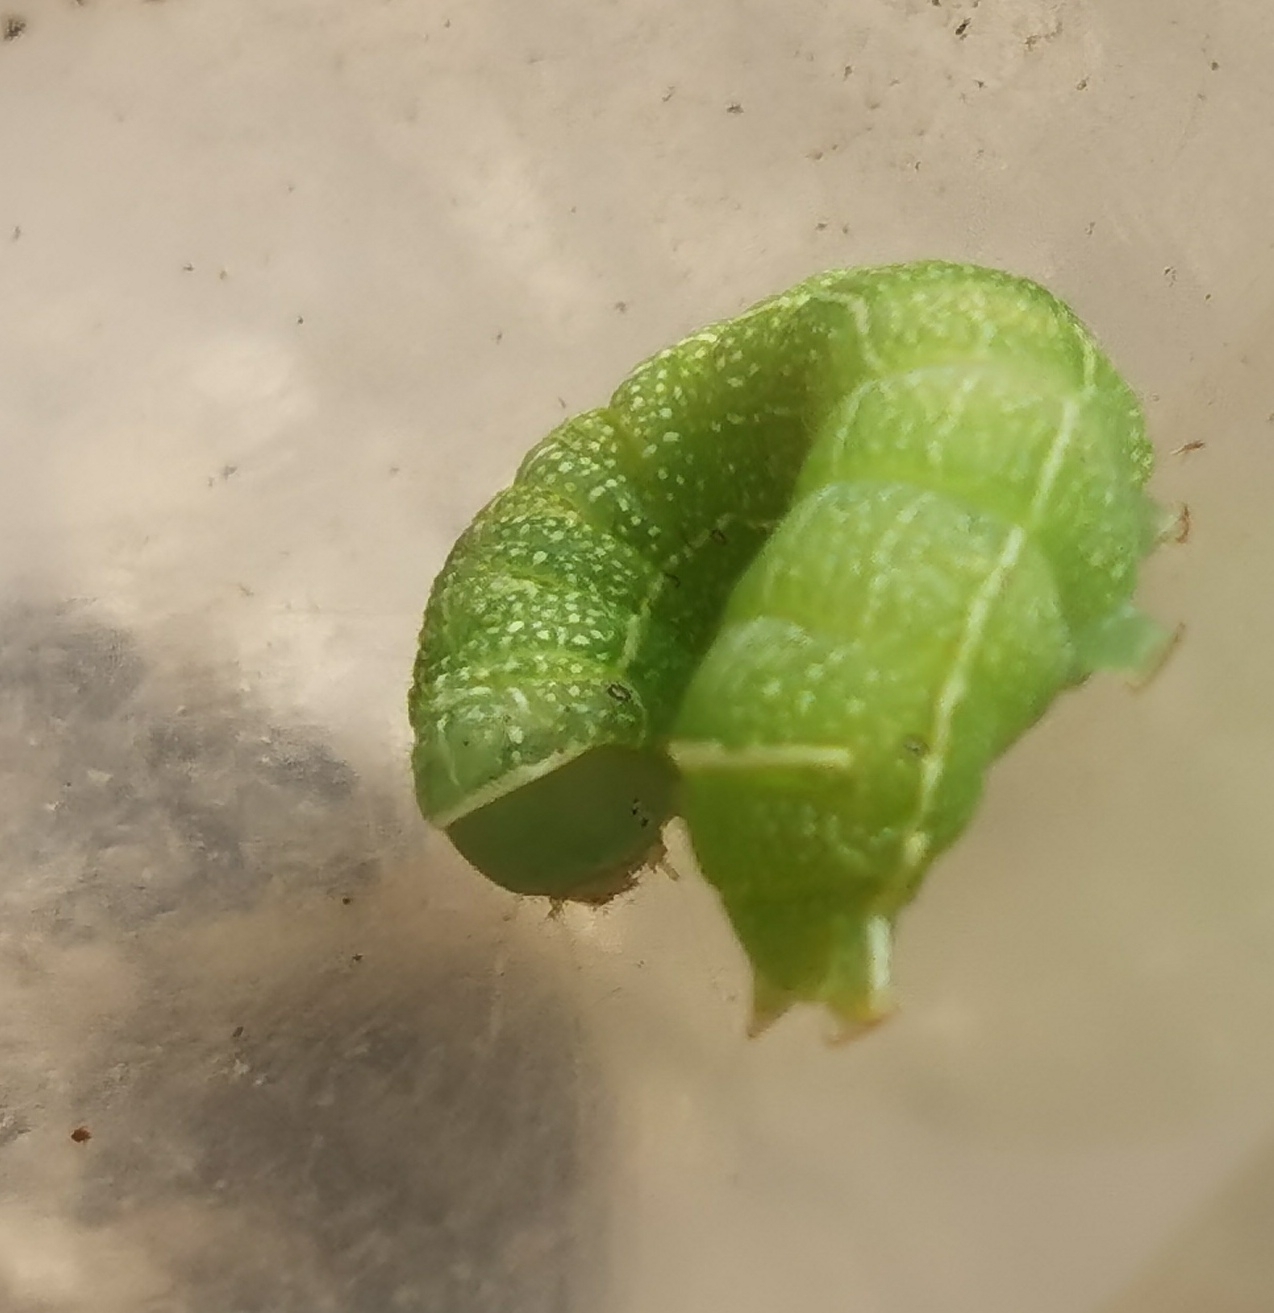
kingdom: Animalia
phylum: Arthropoda
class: Insecta
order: Lepidoptera
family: Noctuidae
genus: Orthosia
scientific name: Orthosia cerasi
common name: Common quaker
